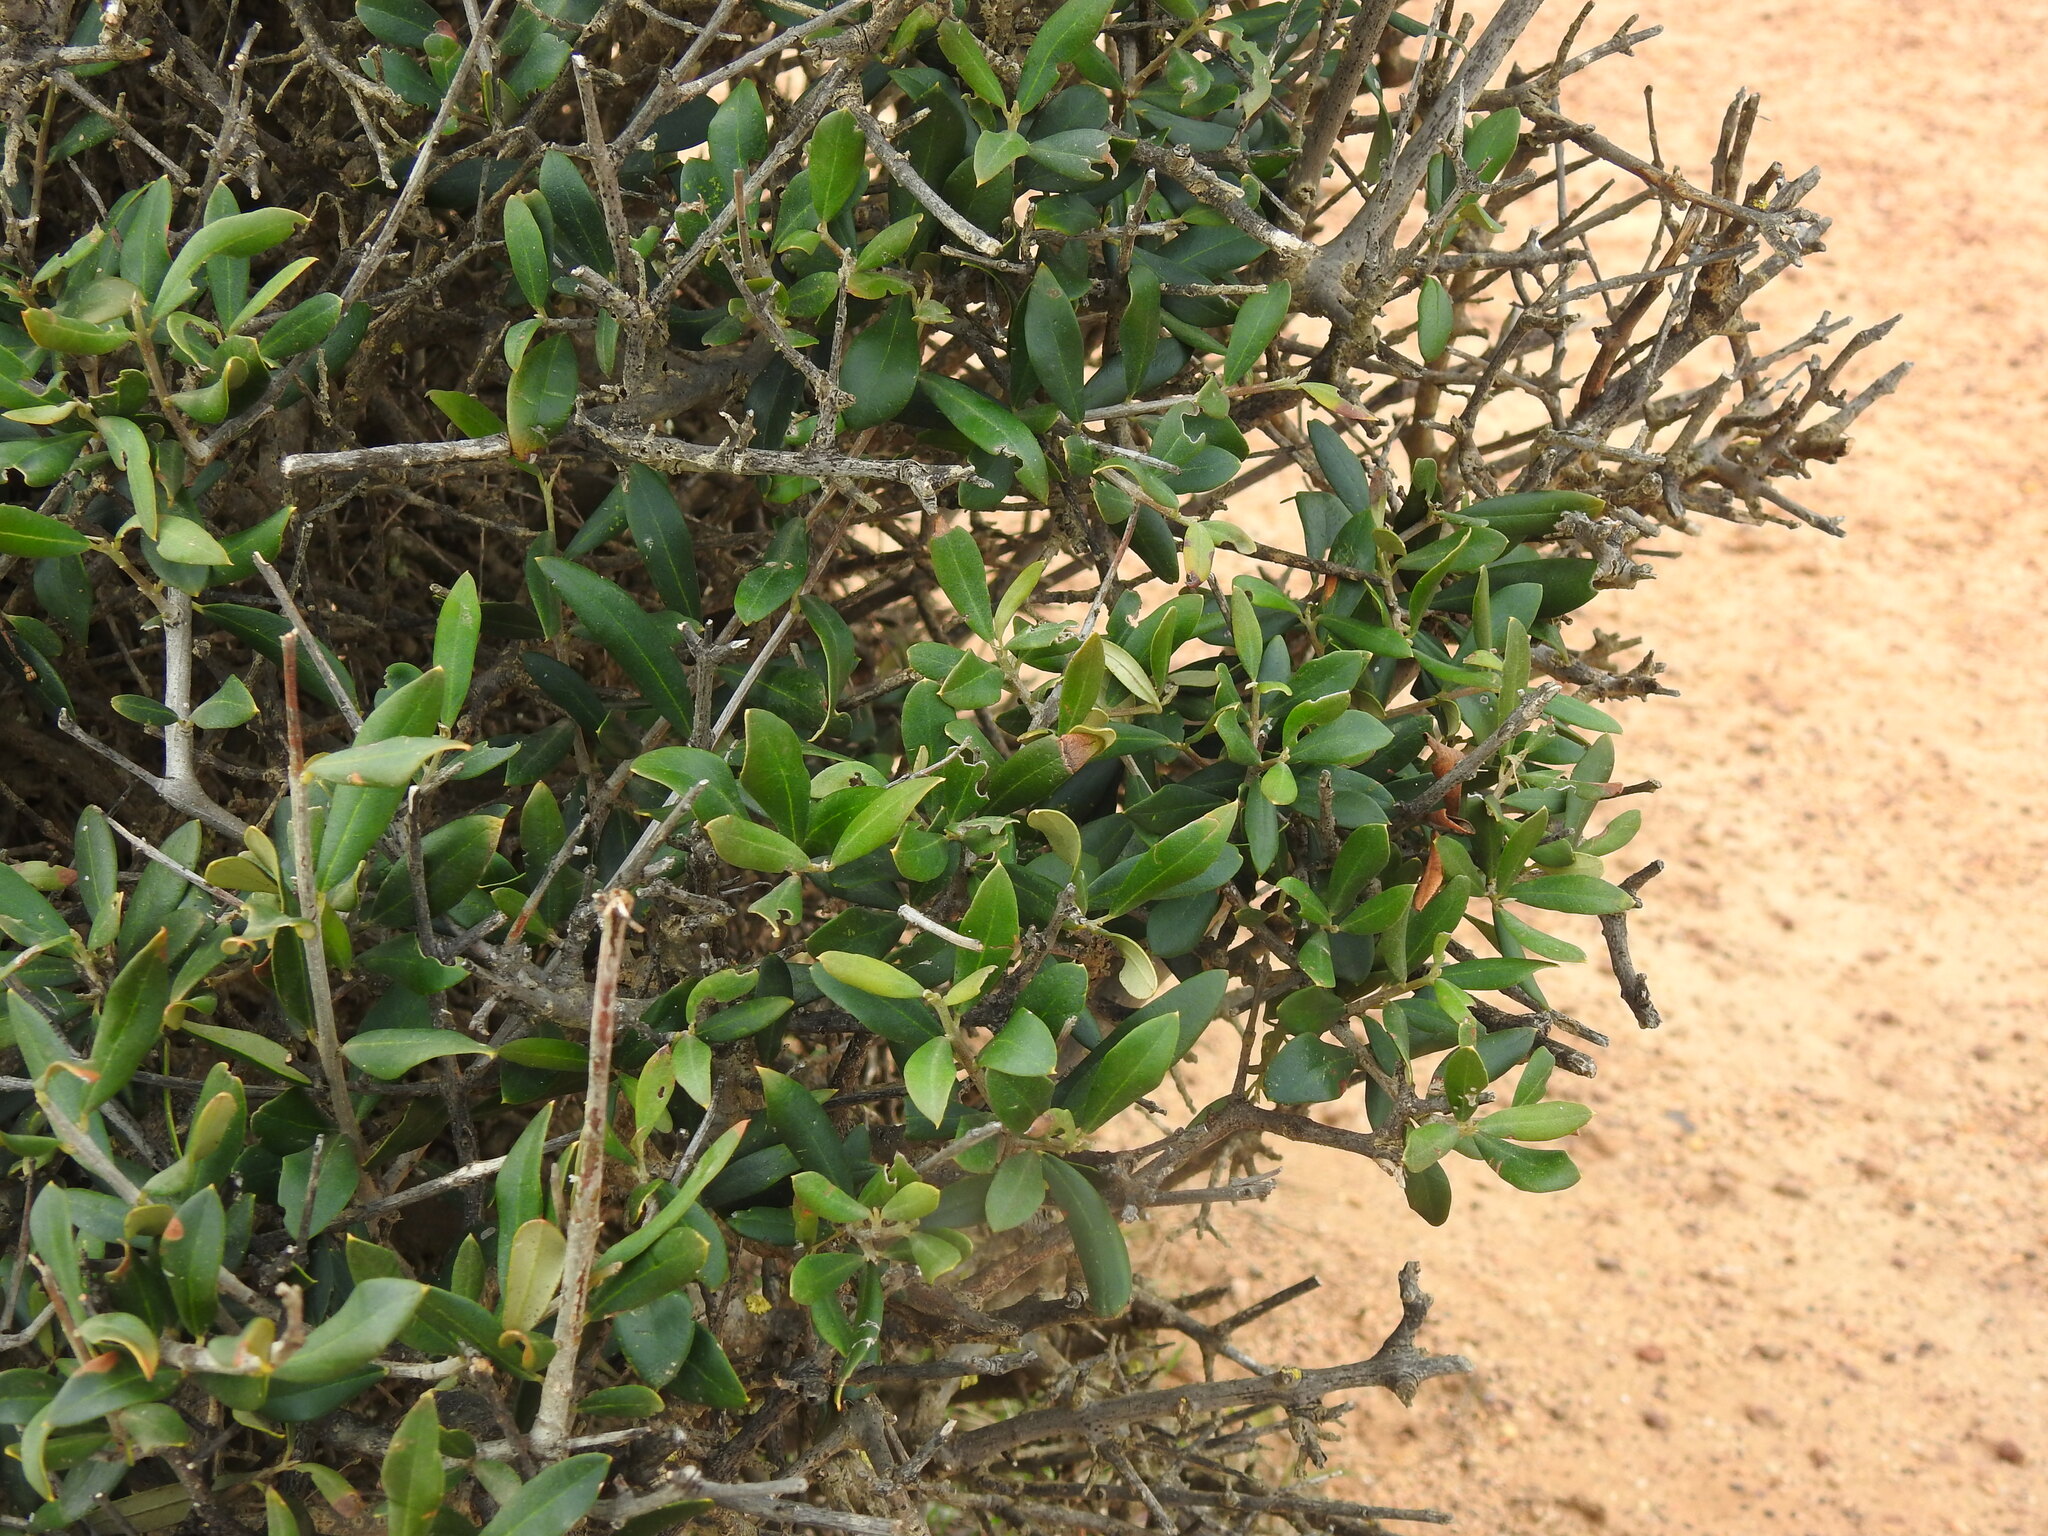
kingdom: Plantae
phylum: Tracheophyta
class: Magnoliopsida
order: Lamiales
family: Oleaceae
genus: Olea
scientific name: Olea europaea
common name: Olive
